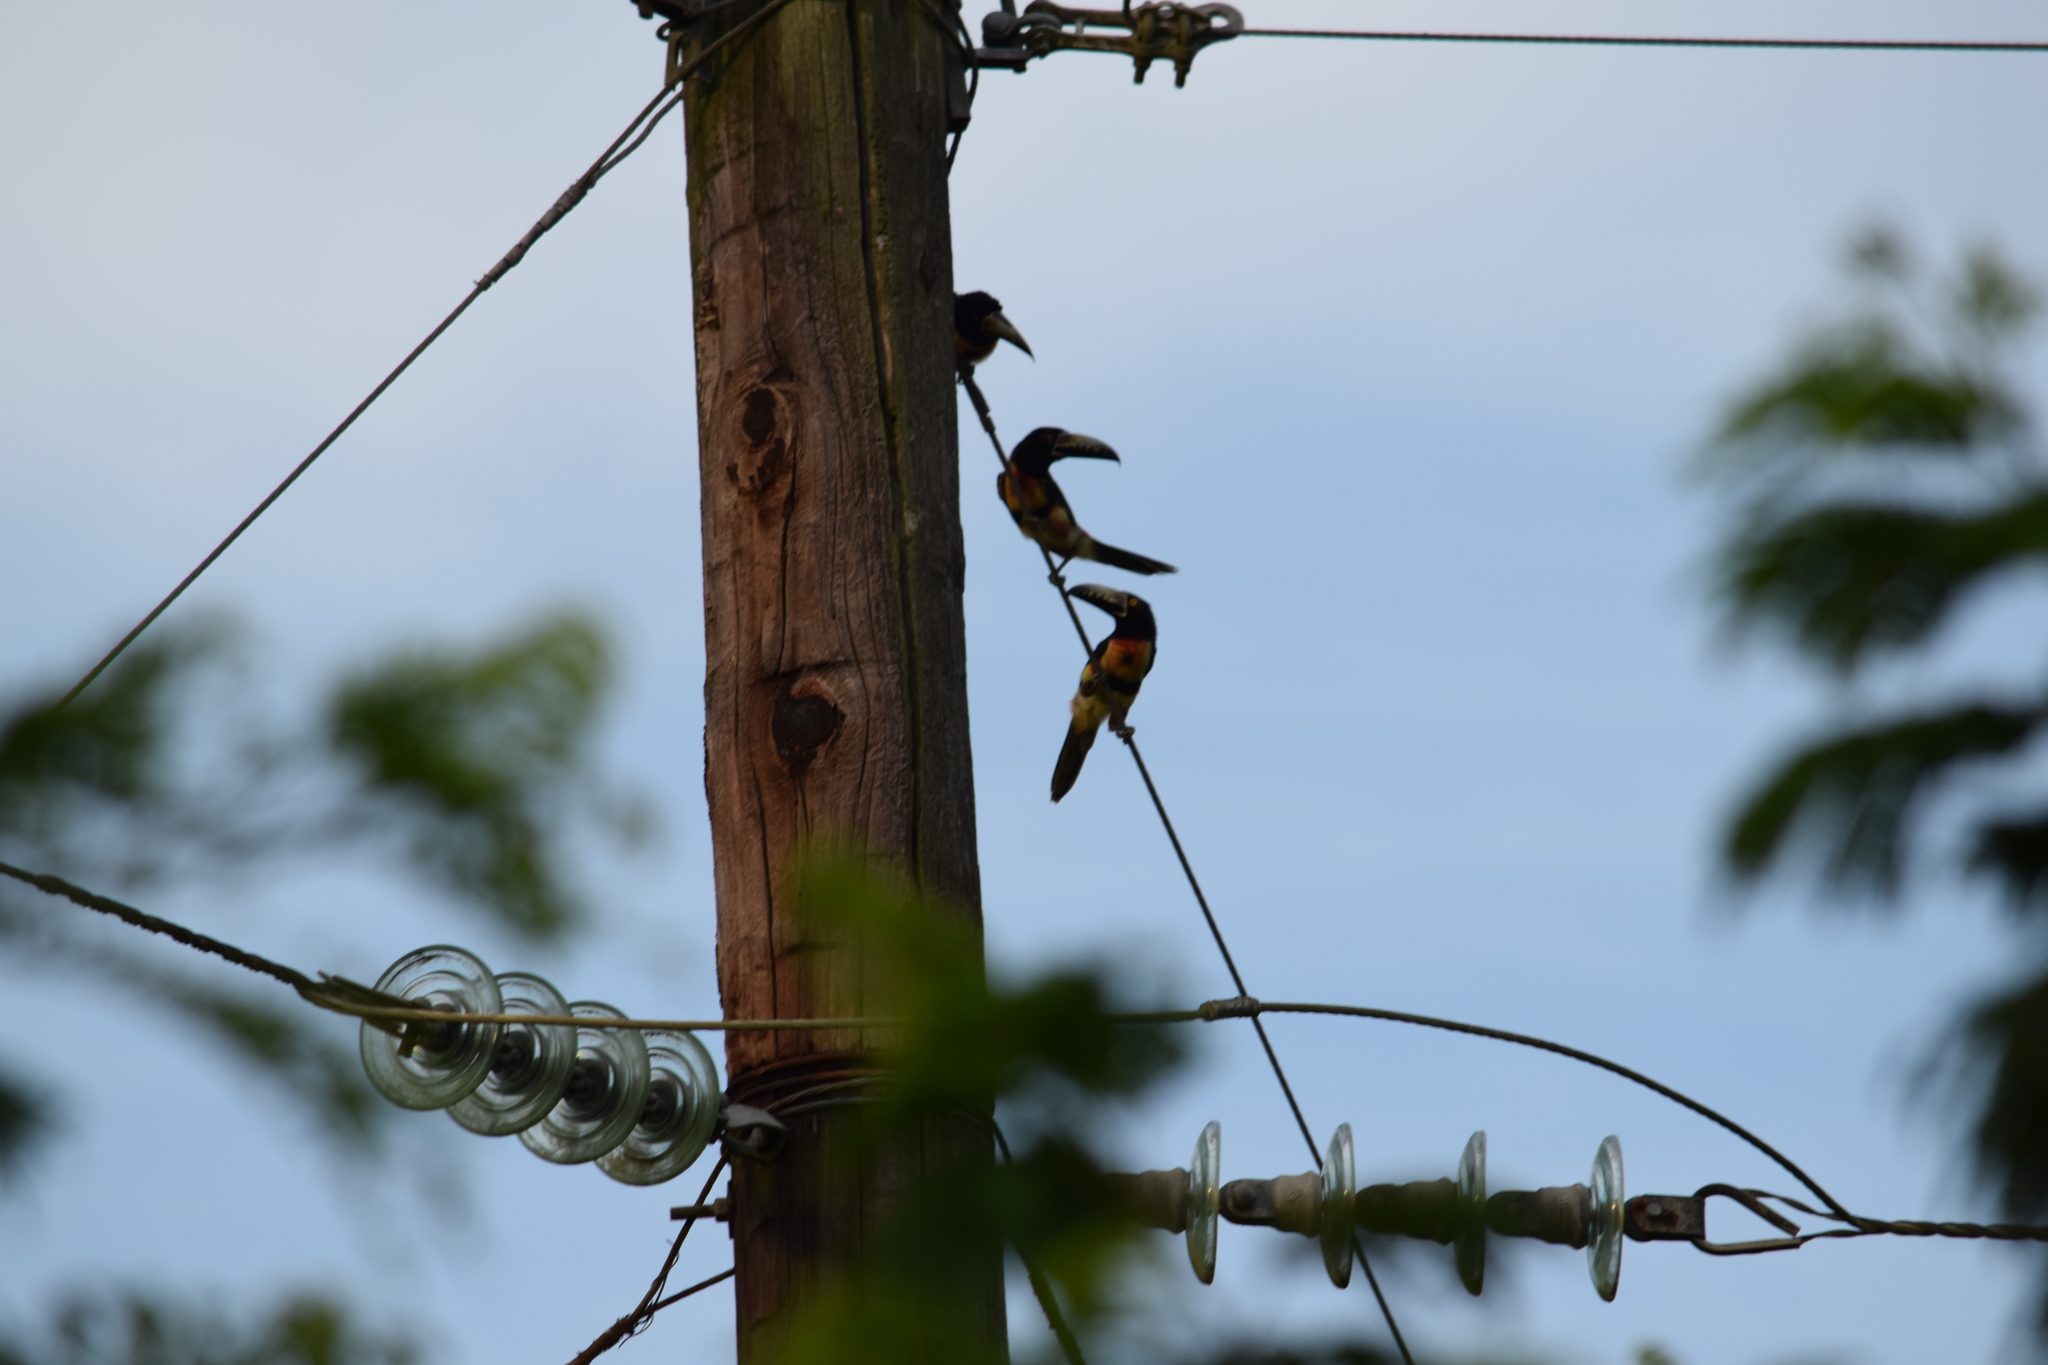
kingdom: Animalia
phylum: Chordata
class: Aves
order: Piciformes
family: Ramphastidae
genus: Pteroglossus
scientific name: Pteroglossus torquatus
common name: Collared aracari
